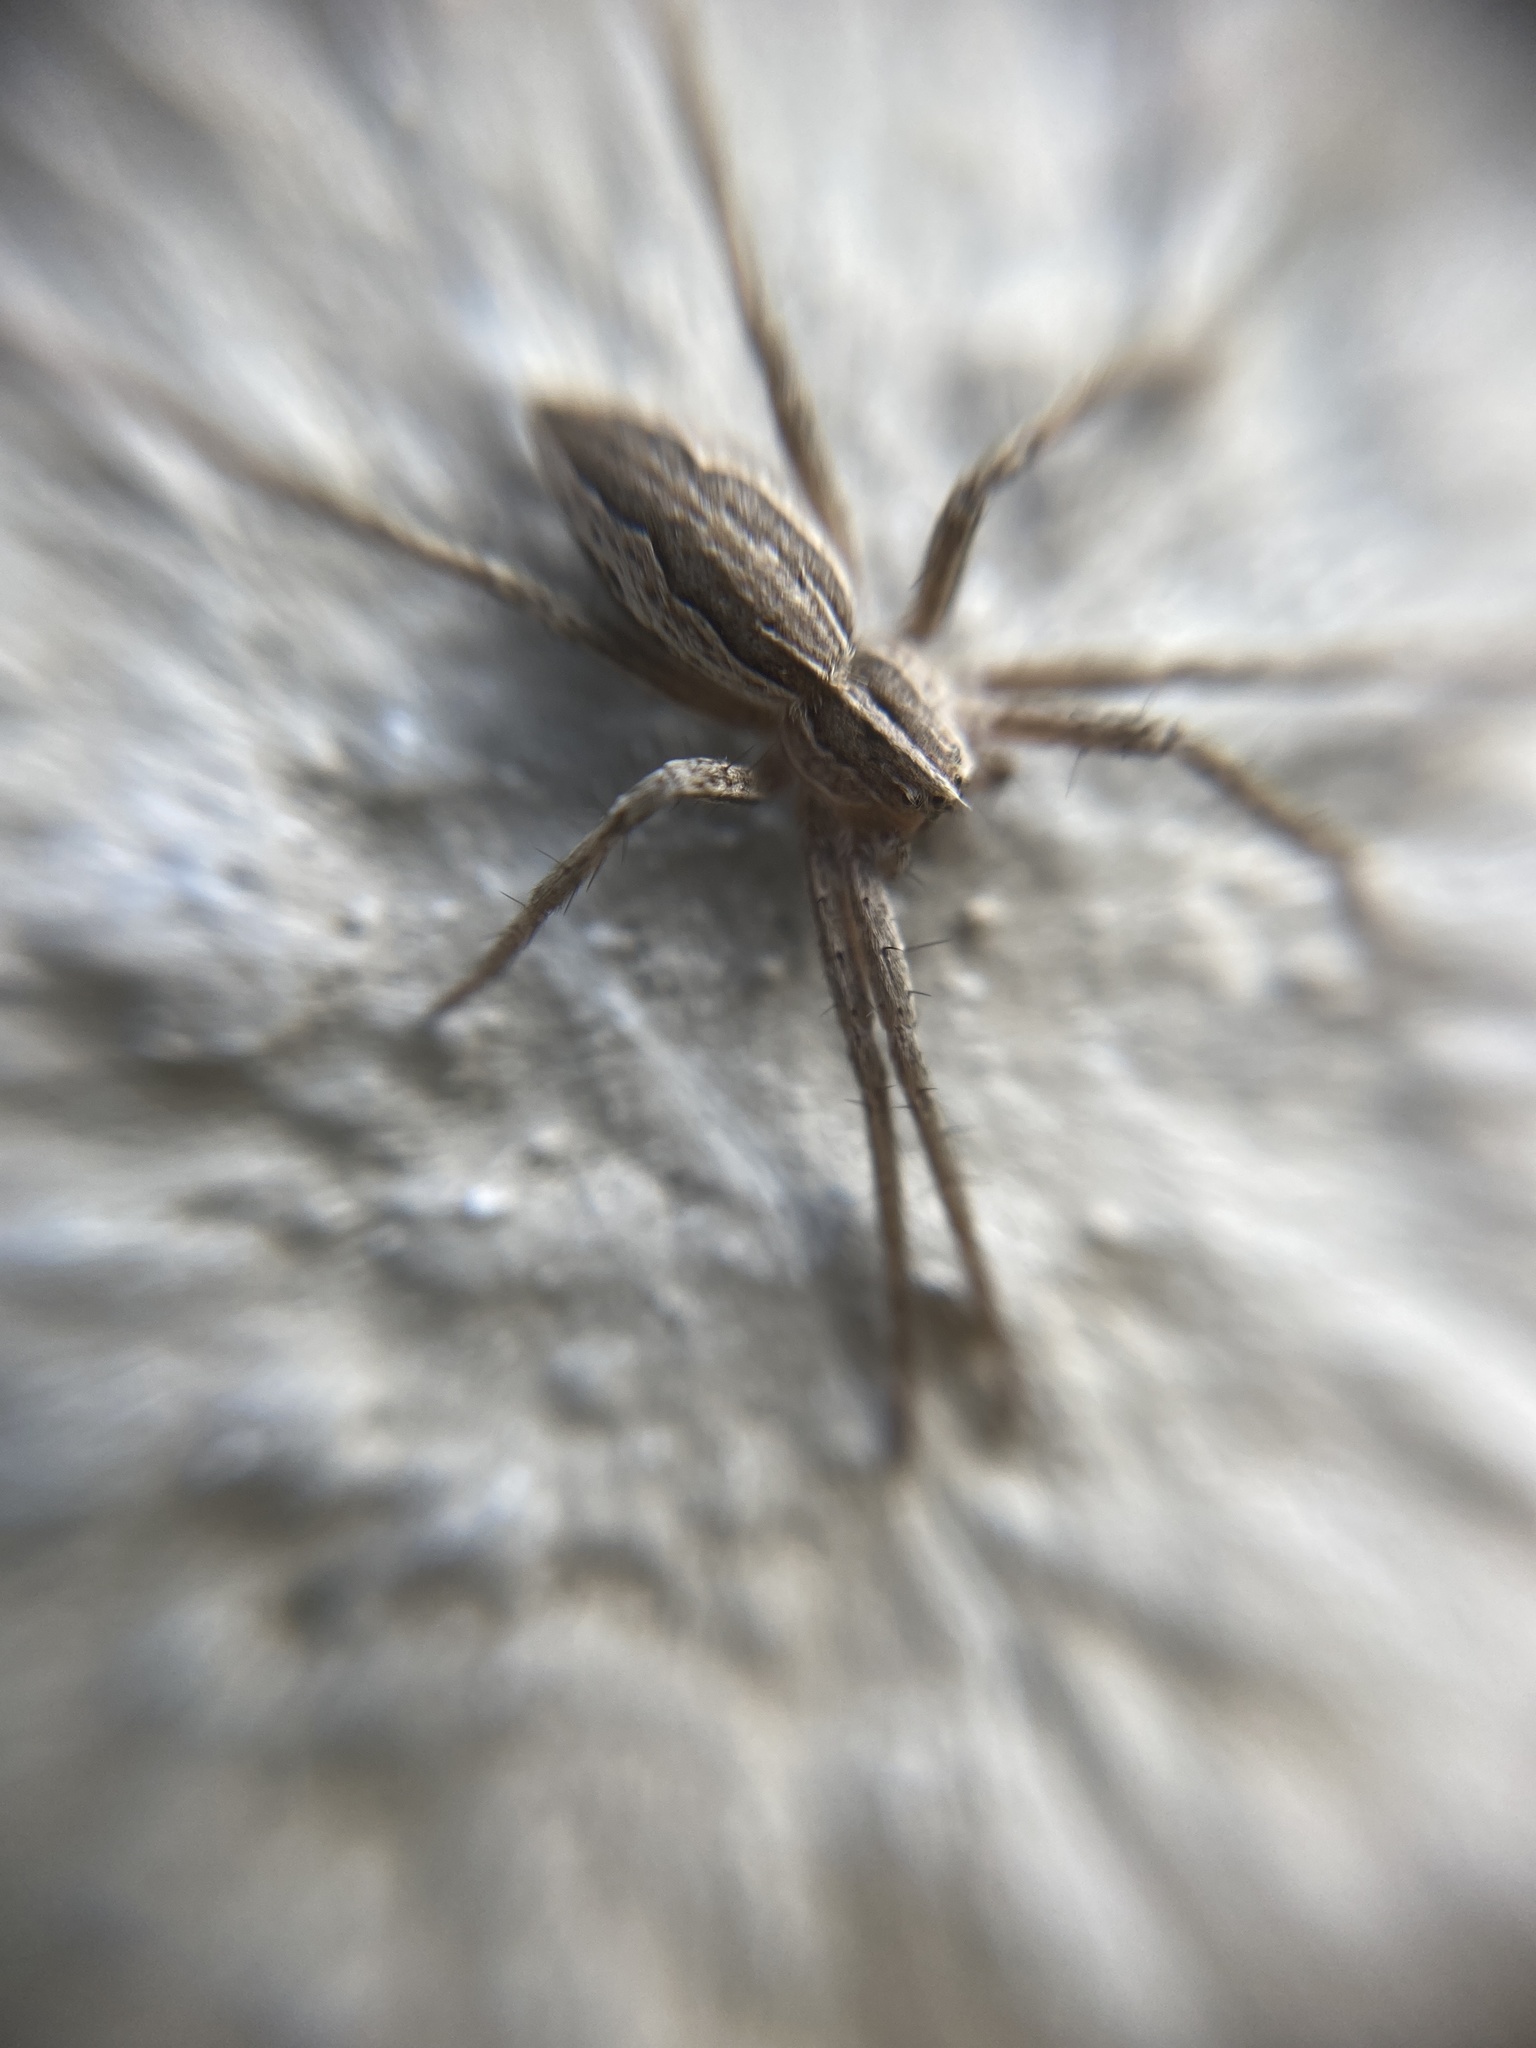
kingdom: Animalia
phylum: Arthropoda
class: Arachnida
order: Araneae
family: Pisauridae
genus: Pisaura
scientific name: Pisaura mirabilis
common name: Tent spider
